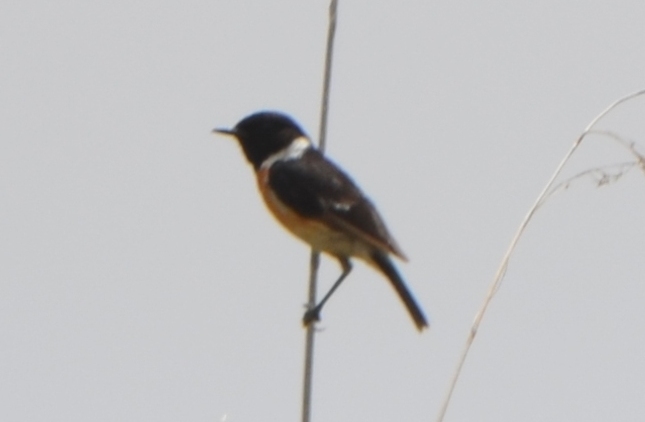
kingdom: Animalia
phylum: Chordata
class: Aves
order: Passeriformes
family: Muscicapidae
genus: Saxicola
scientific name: Saxicola rubicola
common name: European stonechat
